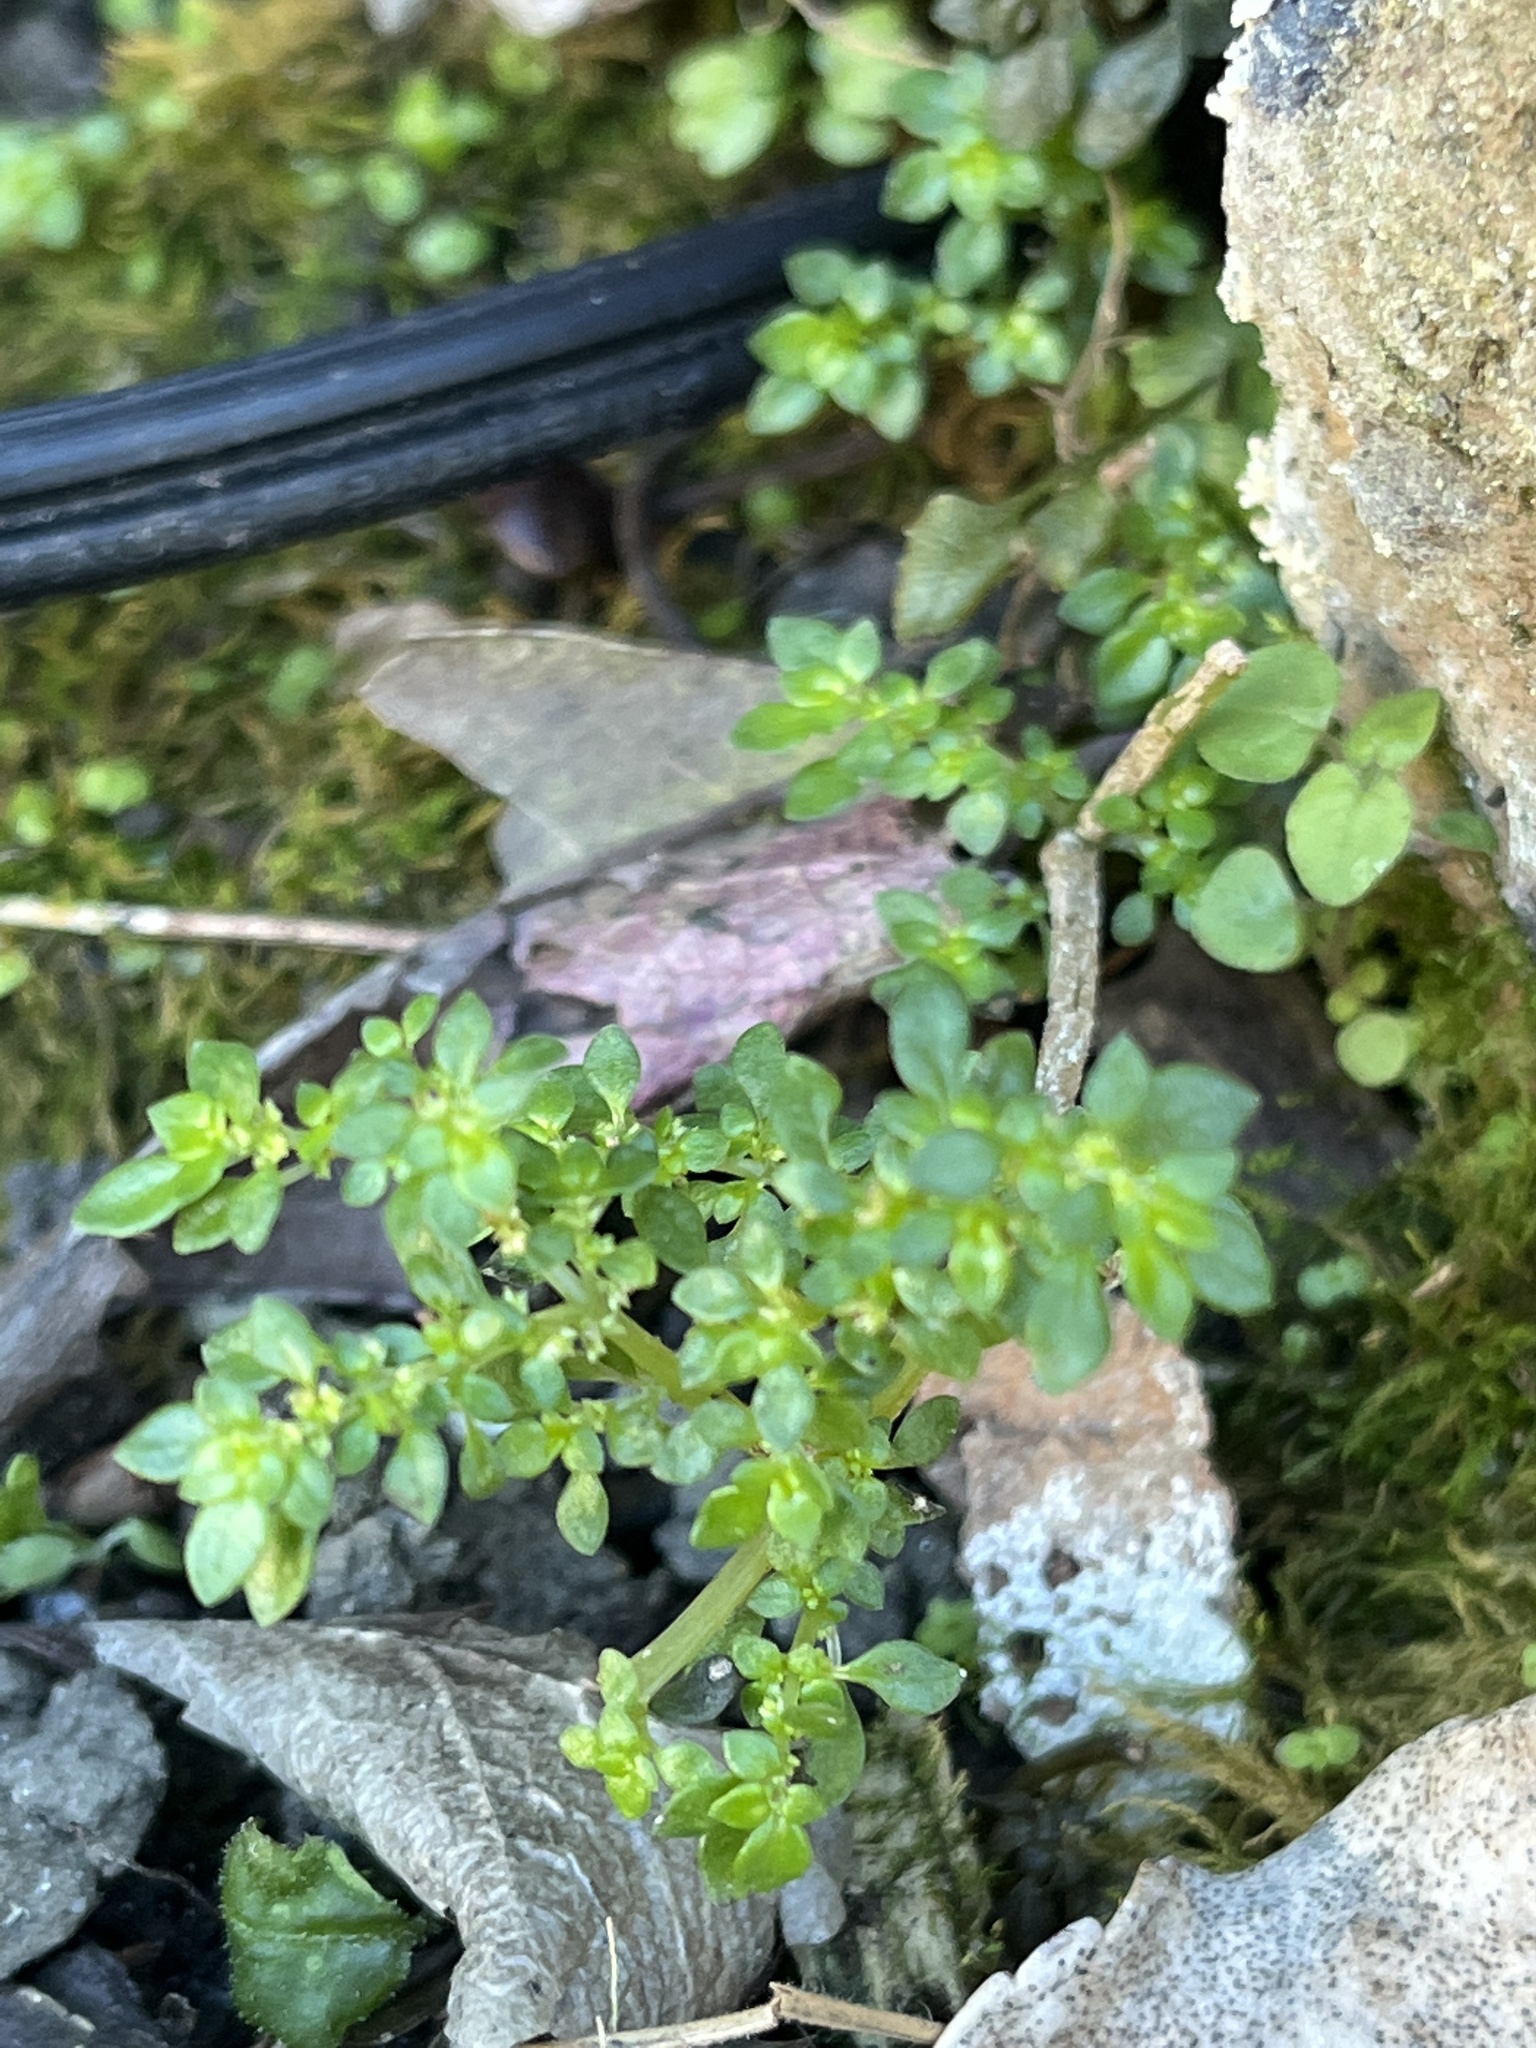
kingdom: Plantae
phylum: Tracheophyta
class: Magnoliopsida
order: Rosales
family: Urticaceae
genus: Pilea
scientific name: Pilea microphylla
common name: Artillery-plant
